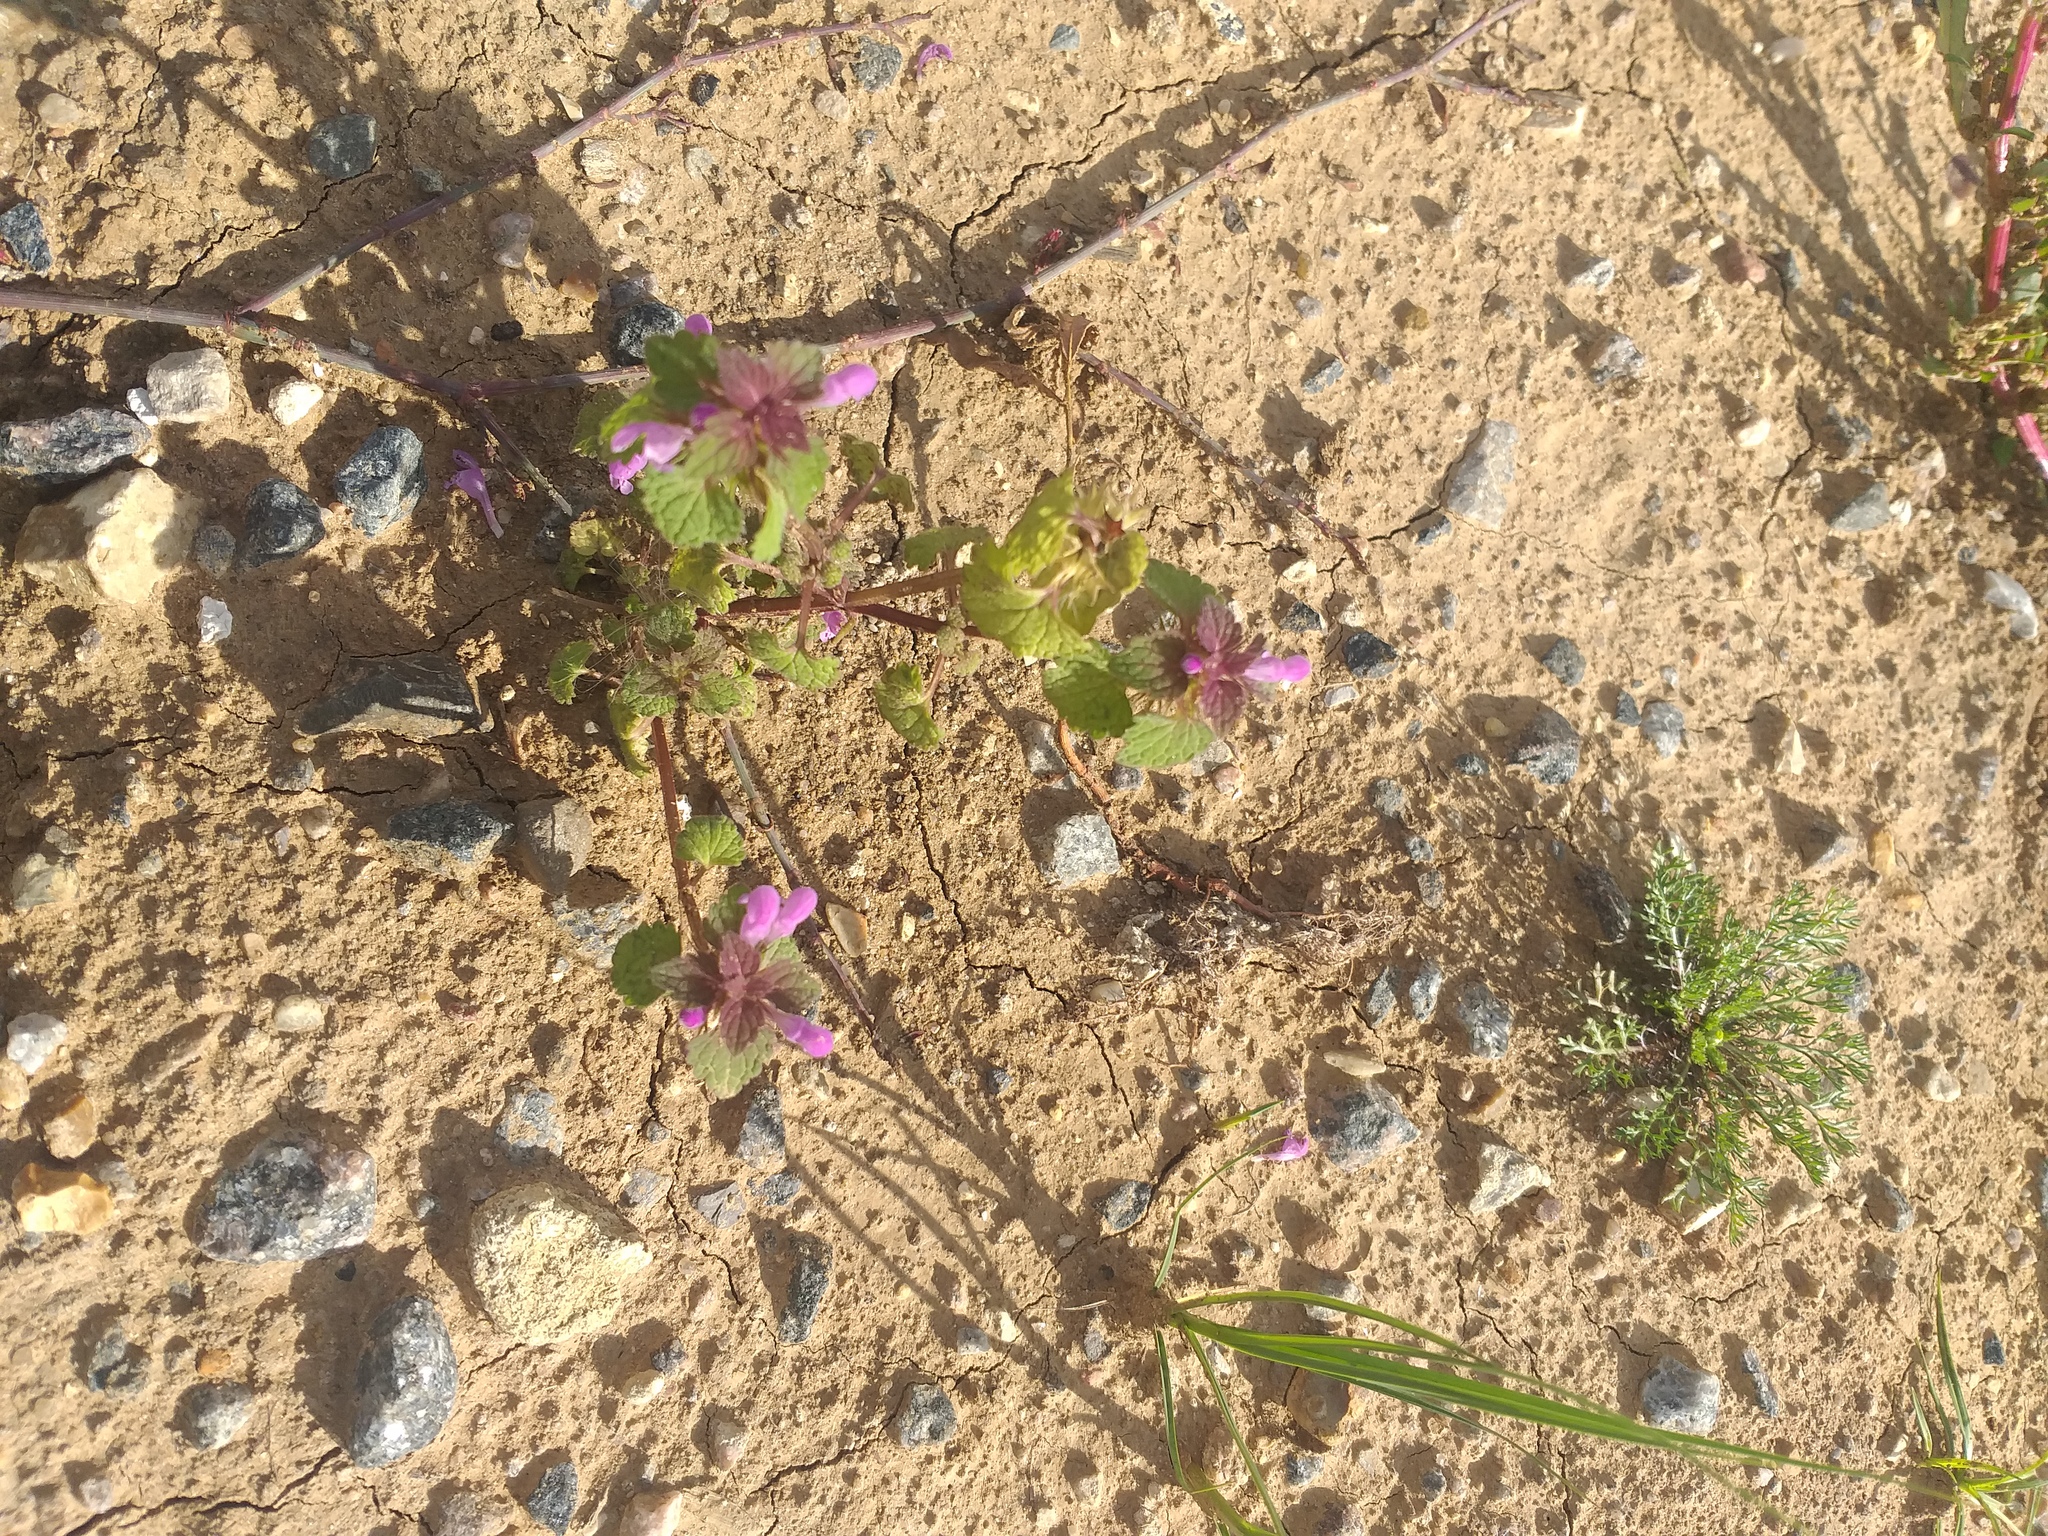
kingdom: Plantae
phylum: Tracheophyta
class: Magnoliopsida
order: Lamiales
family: Lamiaceae
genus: Lamium
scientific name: Lamium purpureum
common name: Red dead-nettle
